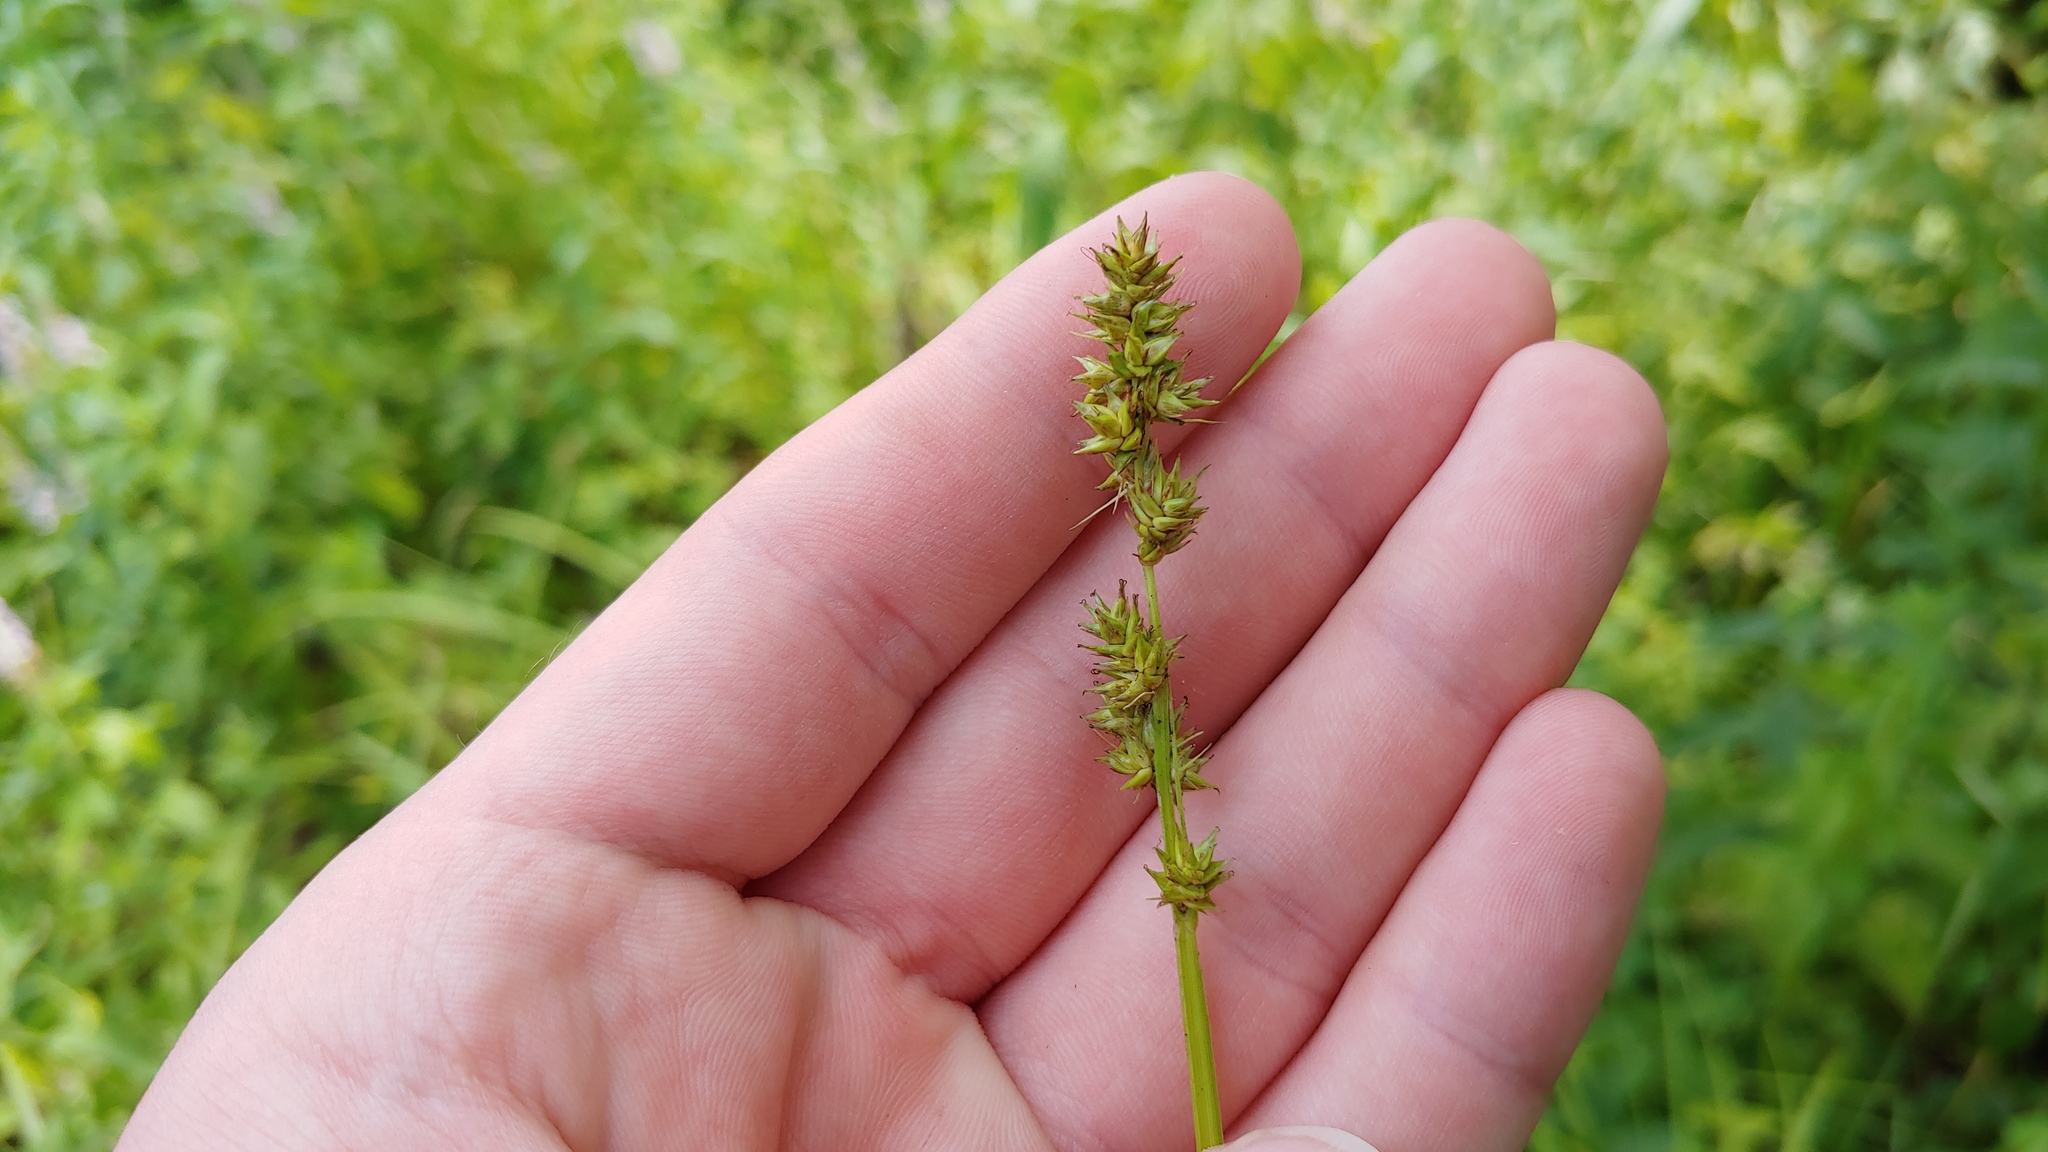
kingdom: Plantae
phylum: Tracheophyta
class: Liliopsida
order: Poales
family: Cyperaceae
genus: Carex
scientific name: Carex conjuncta
